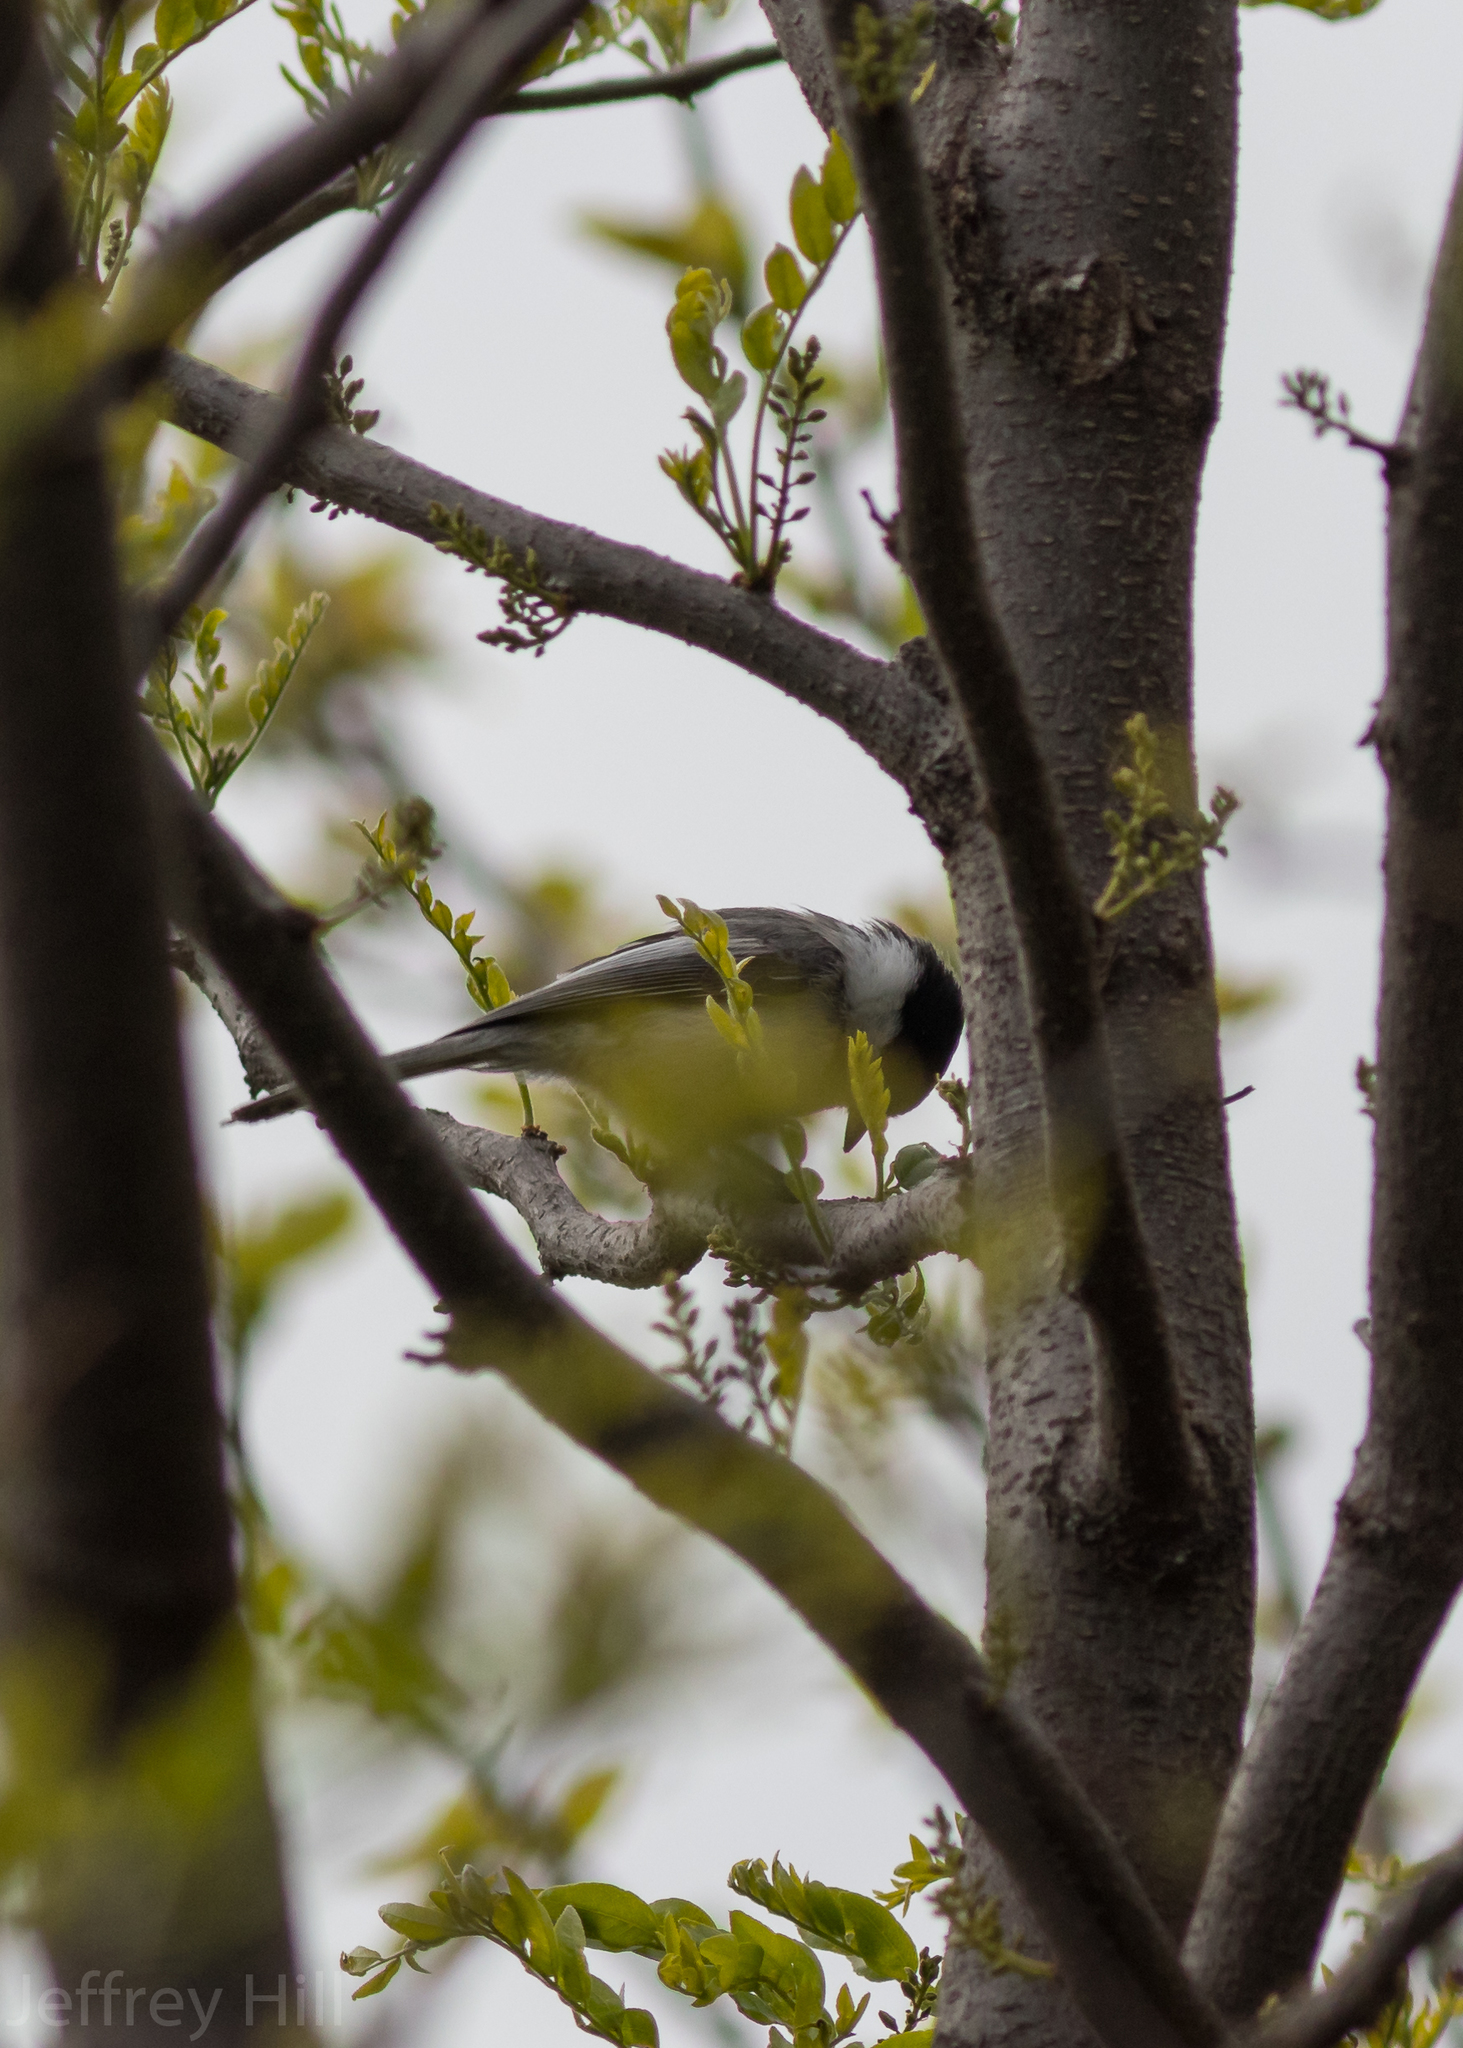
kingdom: Animalia
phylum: Chordata
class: Aves
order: Passeriformes
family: Paridae
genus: Poecile
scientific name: Poecile atricapillus
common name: Black-capped chickadee
